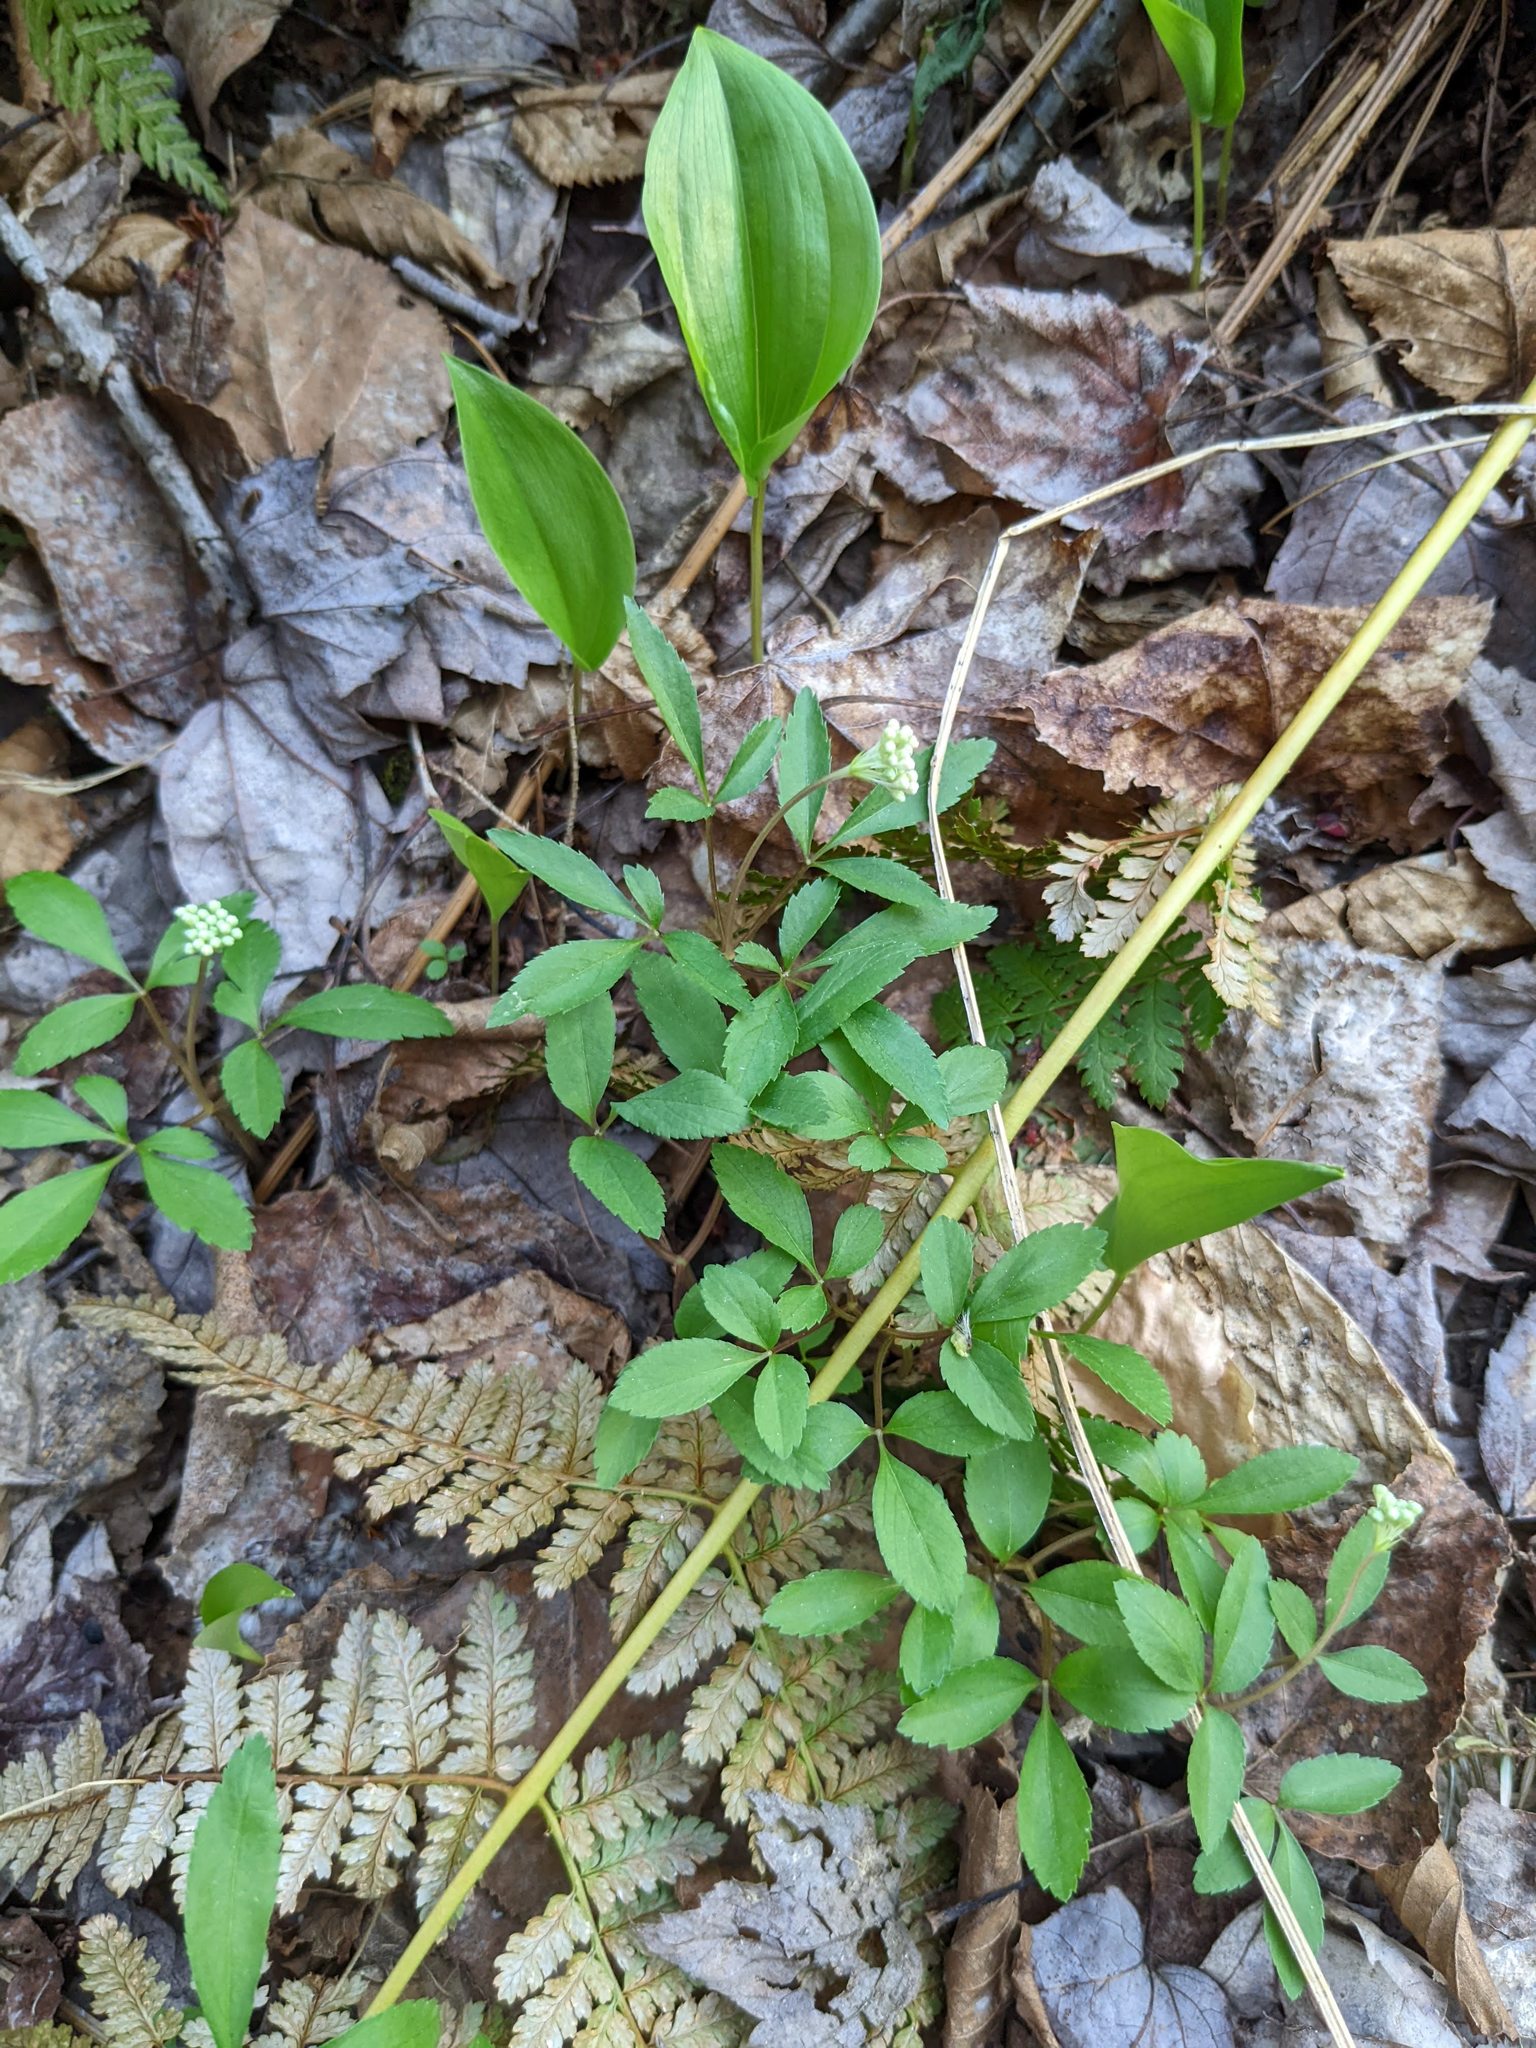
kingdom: Plantae
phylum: Tracheophyta
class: Magnoliopsida
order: Apiales
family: Araliaceae
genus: Panax
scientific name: Panax trifolius
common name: Dwarf ginseng
